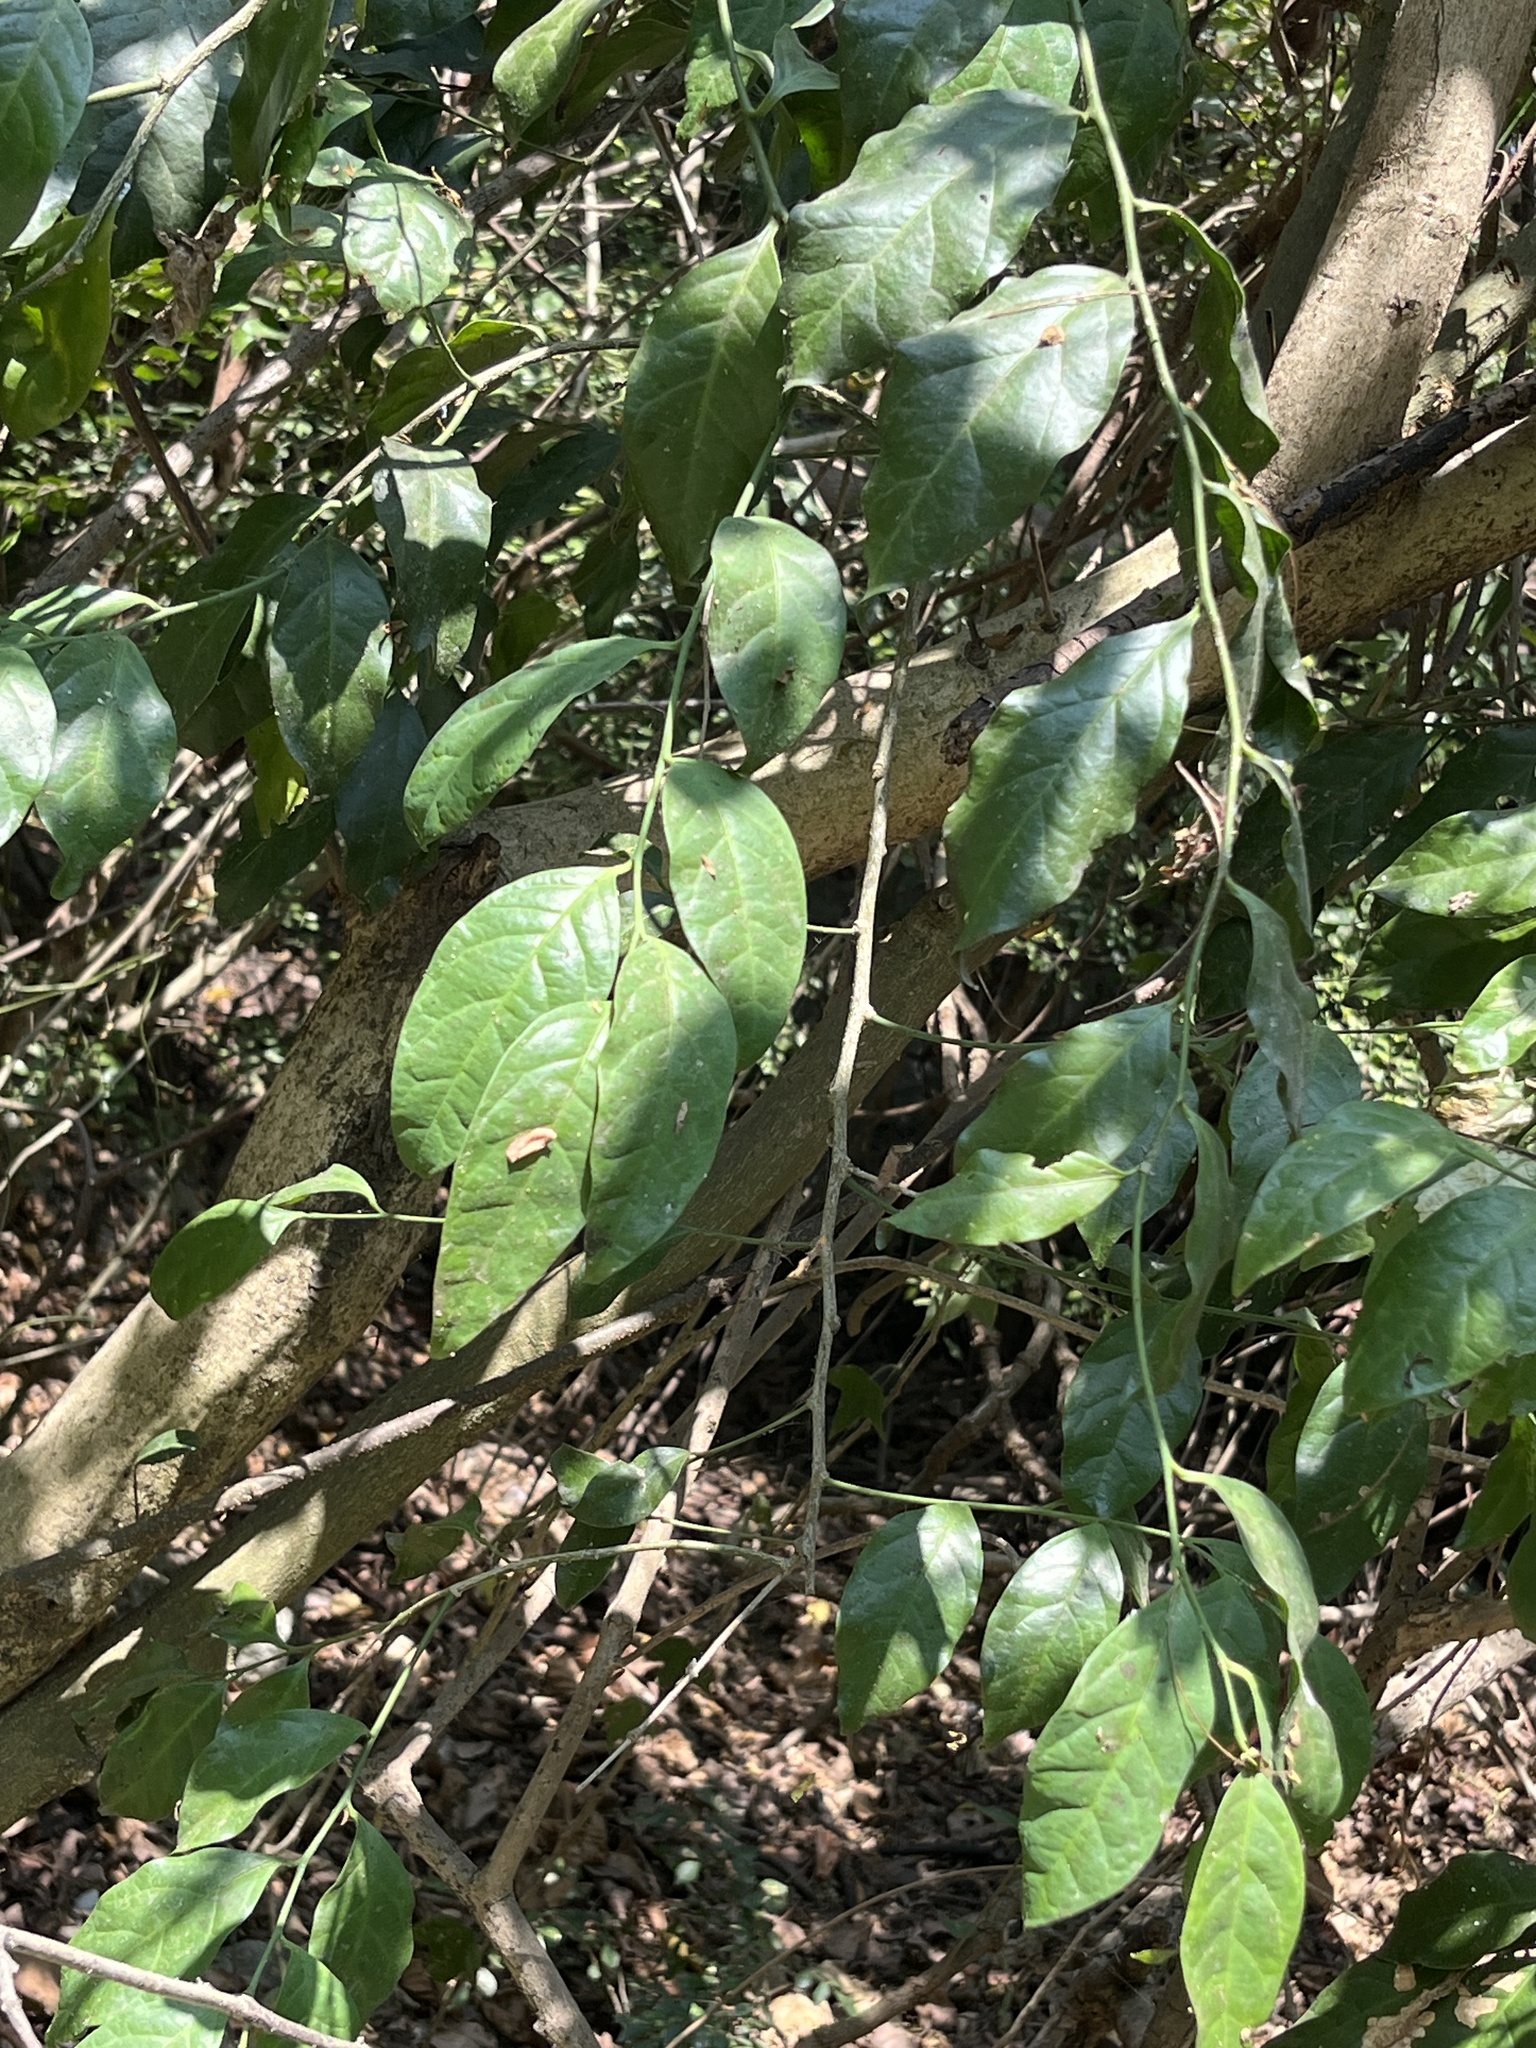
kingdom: Plantae
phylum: Tracheophyta
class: Magnoliopsida
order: Santalales
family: Opiliaceae
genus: Champereia
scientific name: Champereia manillana
